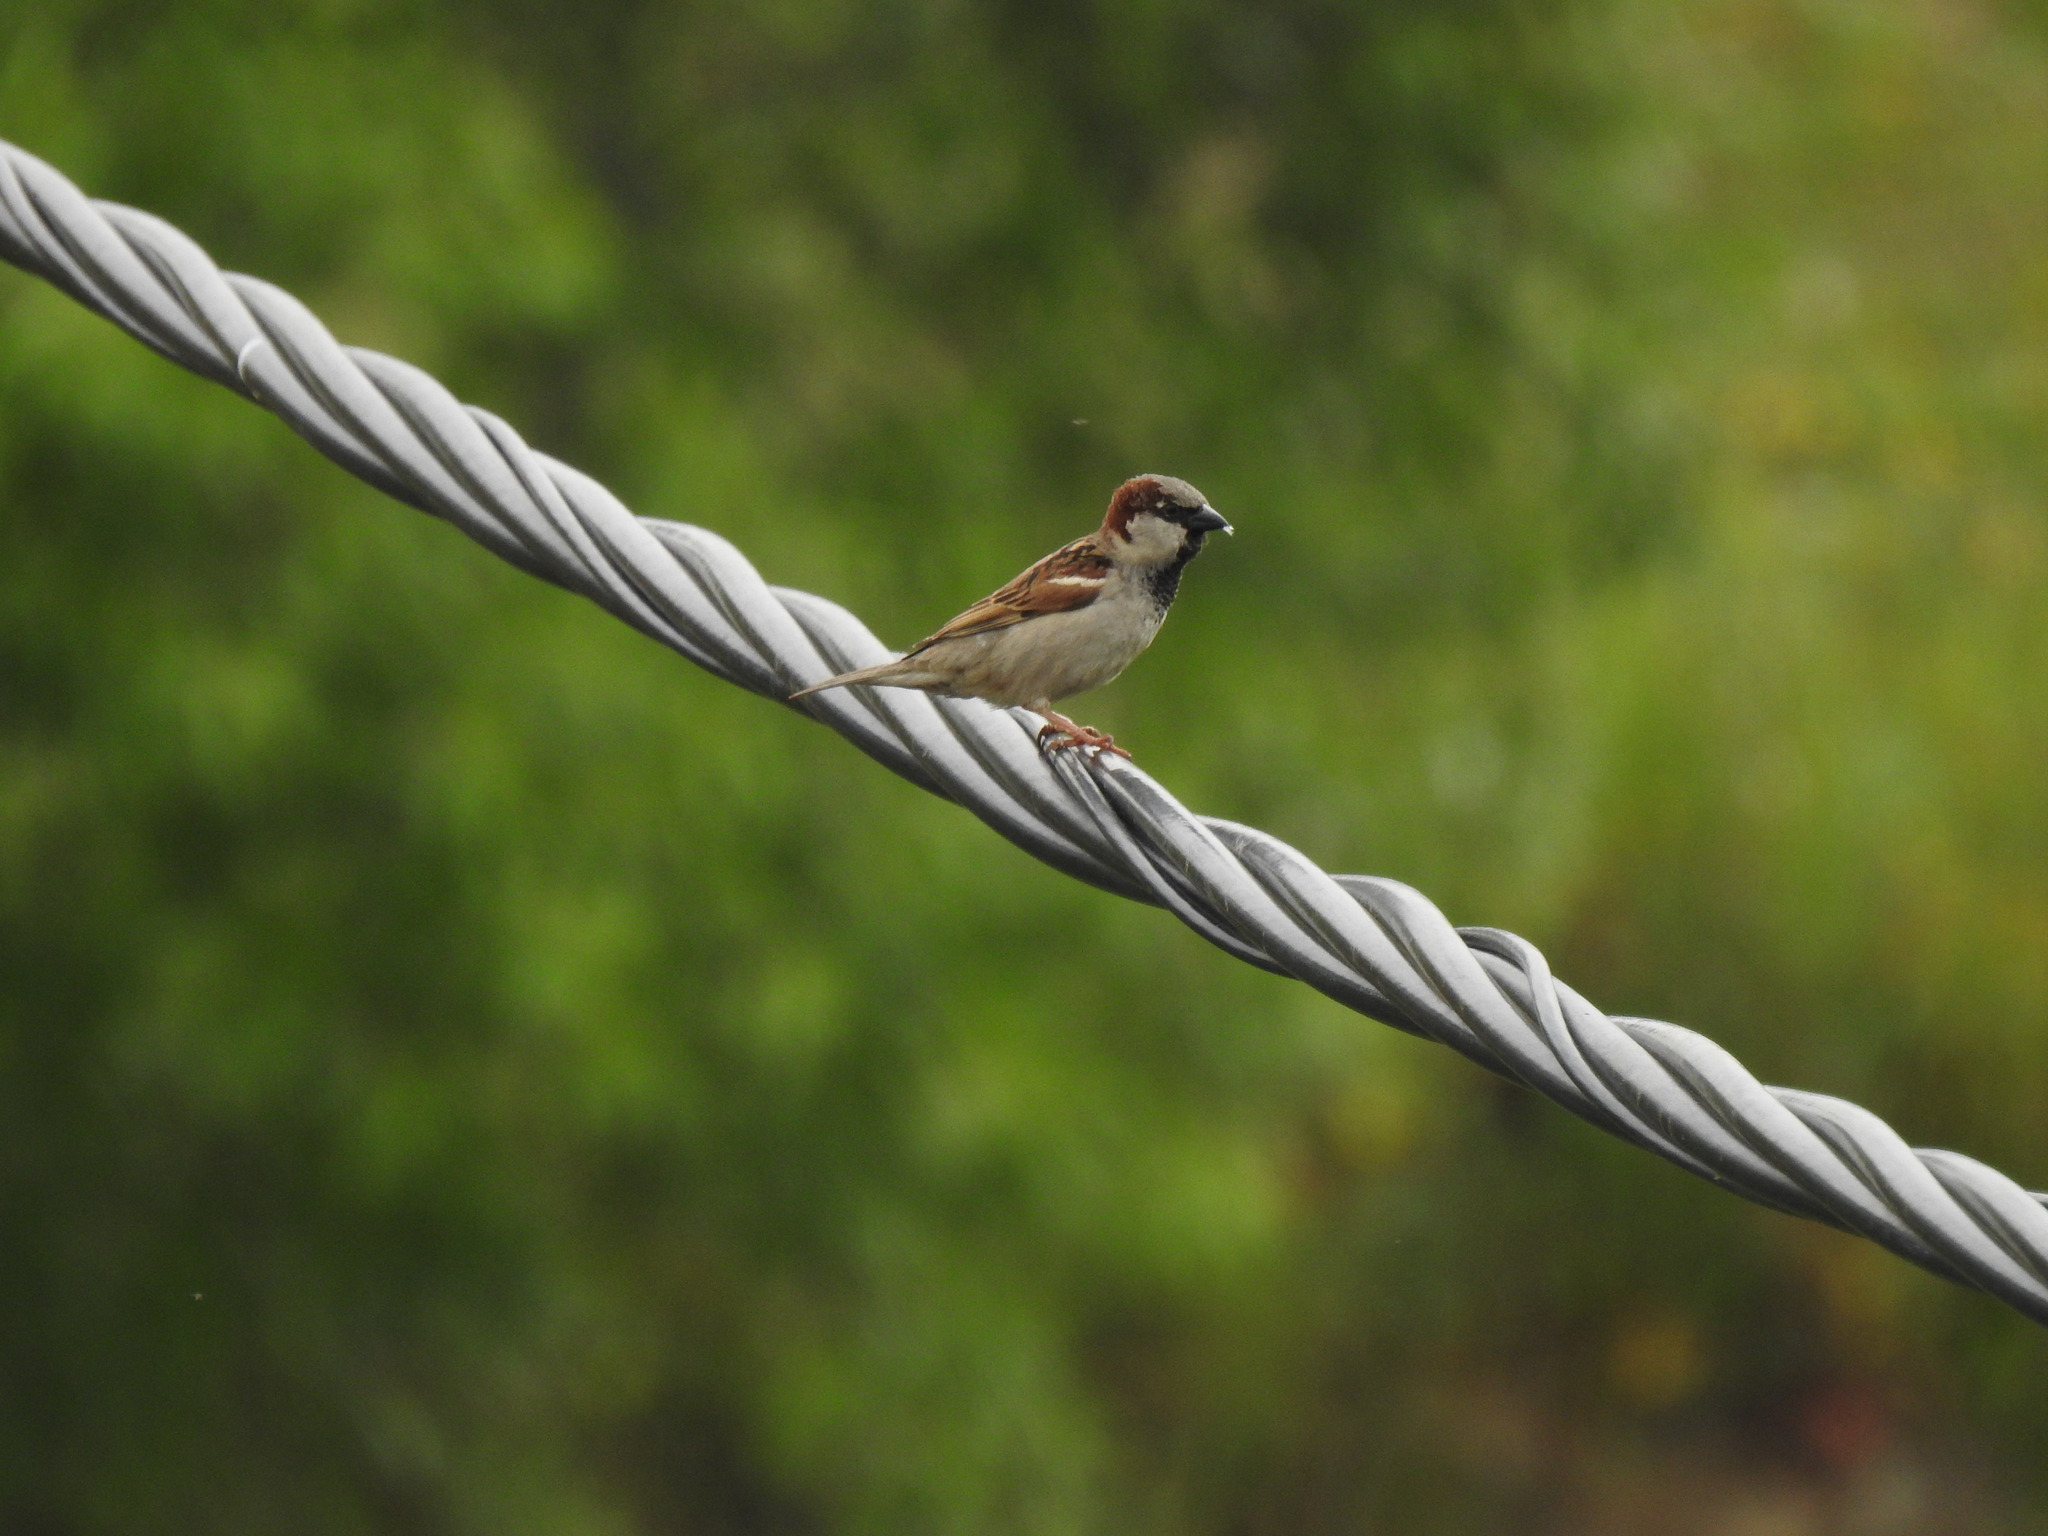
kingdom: Animalia
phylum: Chordata
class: Aves
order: Passeriformes
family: Passeridae
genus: Passer
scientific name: Passer domesticus
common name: House sparrow
